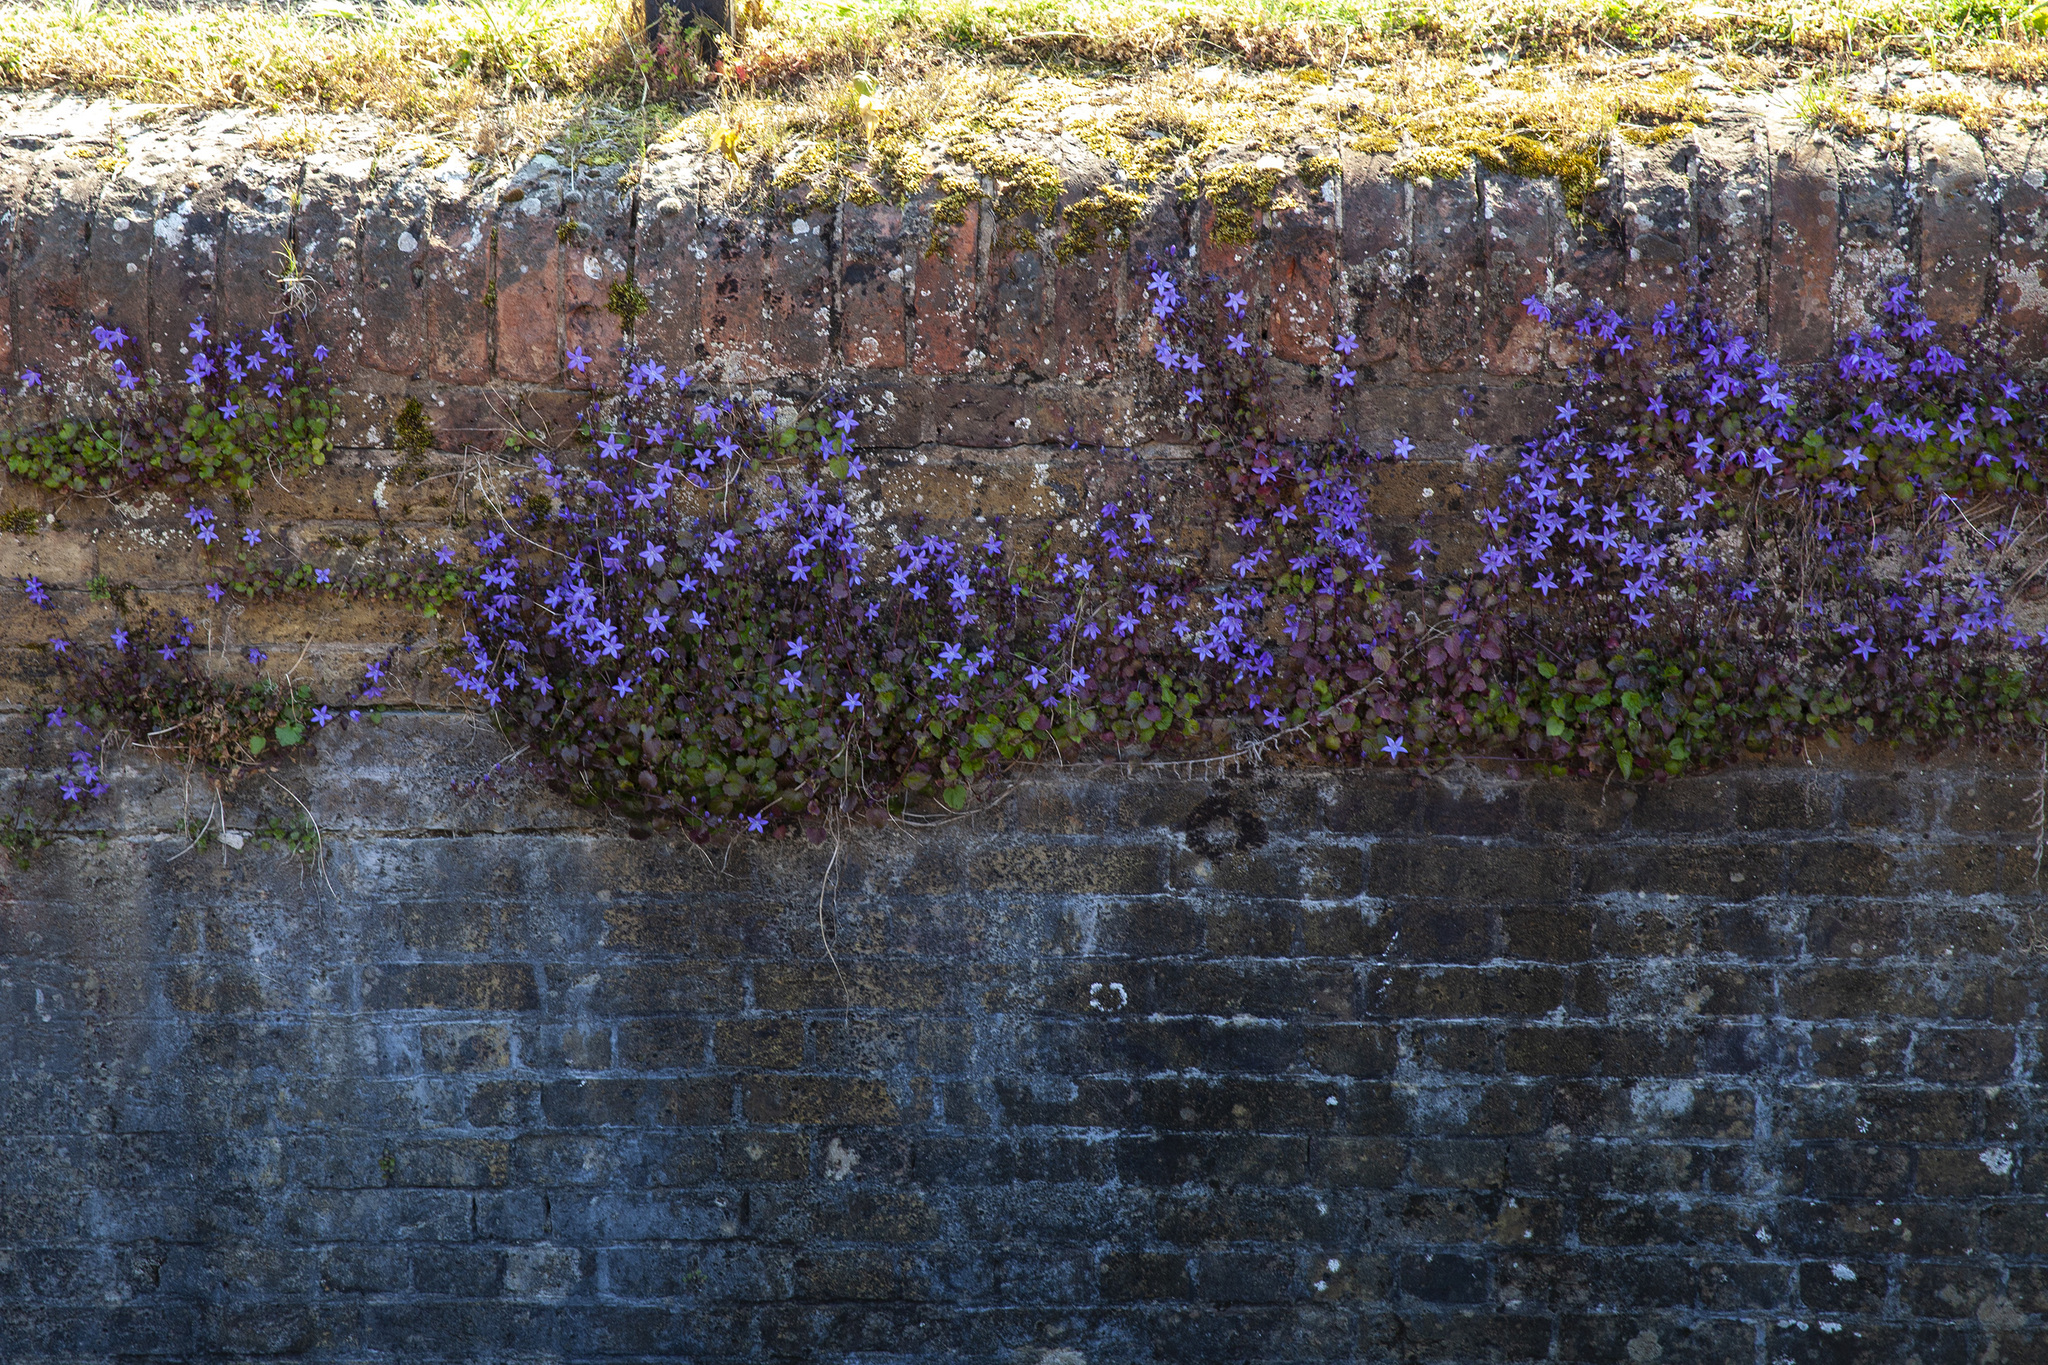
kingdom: Plantae
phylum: Tracheophyta
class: Magnoliopsida
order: Asterales
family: Campanulaceae
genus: Campanula
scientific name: Campanula poscharskyana
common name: Trailing bellflower
